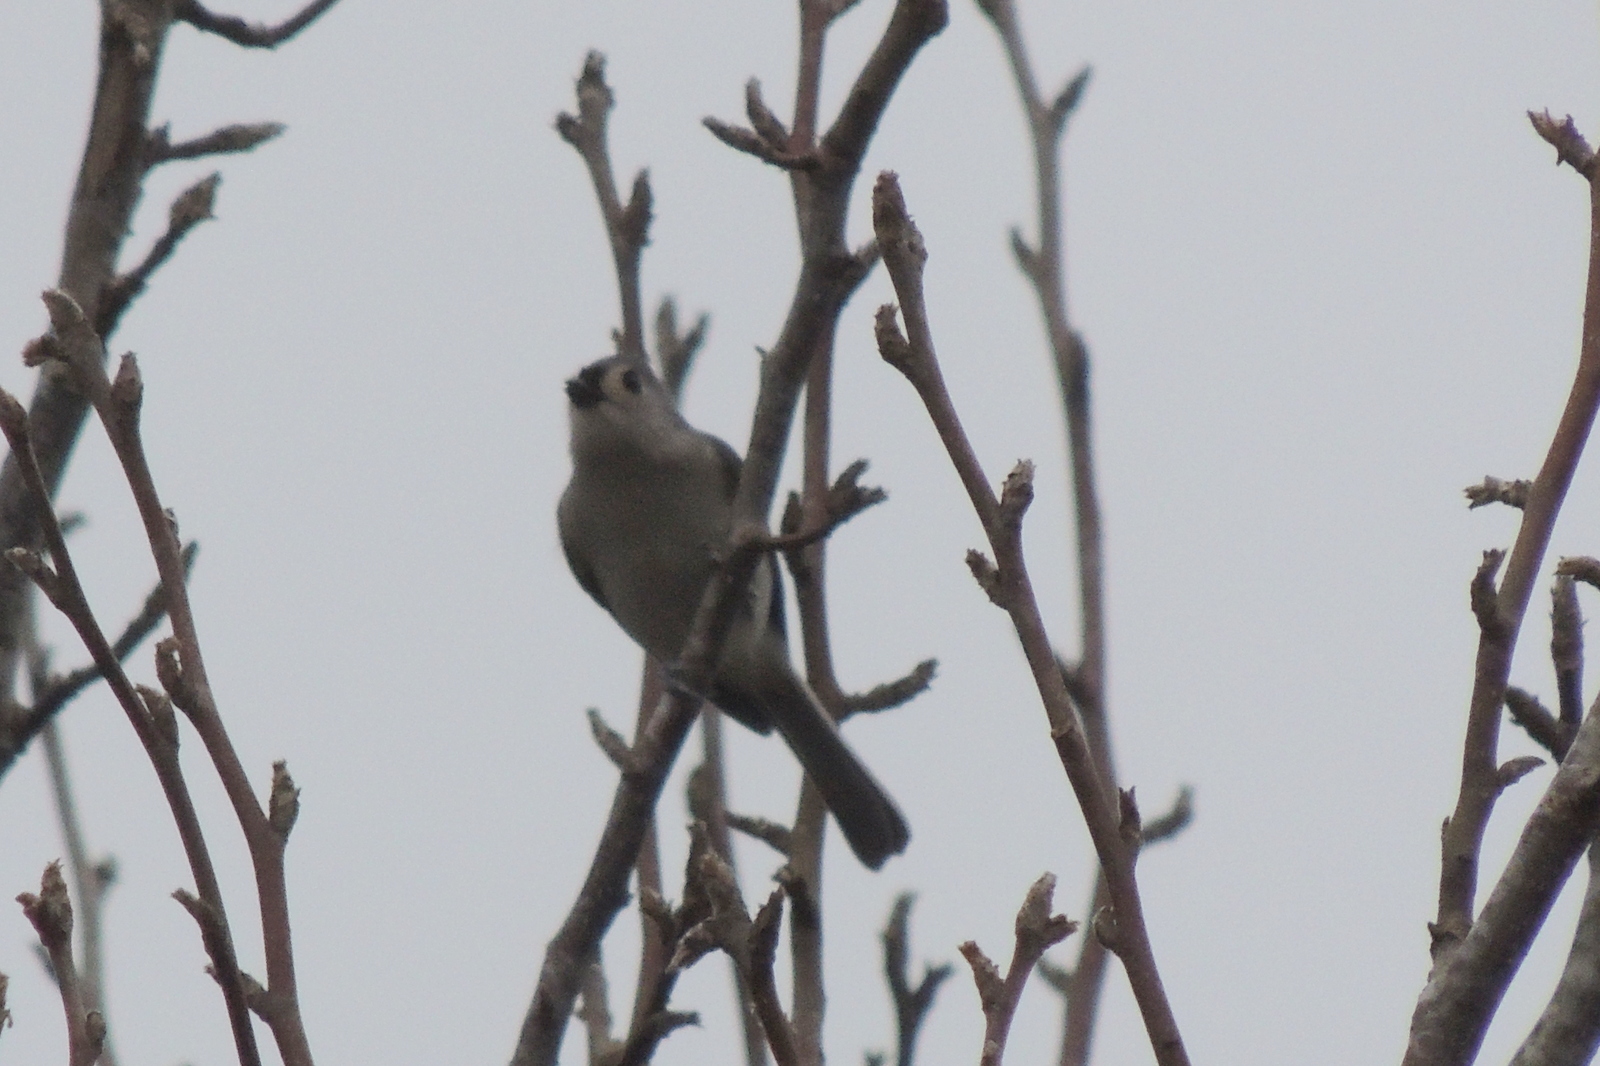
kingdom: Animalia
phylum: Chordata
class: Aves
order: Passeriformes
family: Paridae
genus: Baeolophus
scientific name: Baeolophus bicolor
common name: Tufted titmouse
